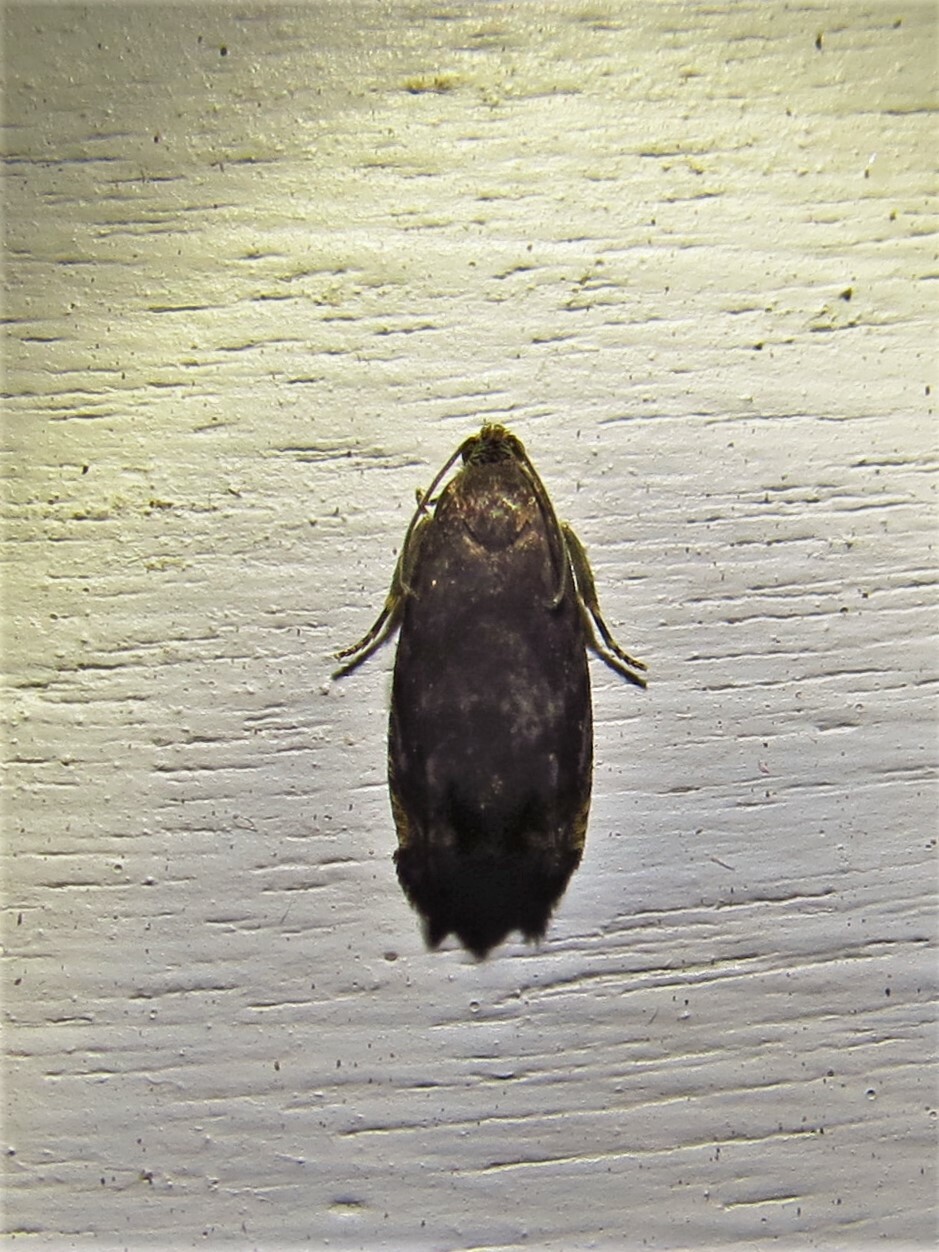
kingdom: Animalia
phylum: Arthropoda
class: Insecta
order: Lepidoptera
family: Tortricidae
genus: Cydia
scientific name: Cydia caryana
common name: Hickory shuckworm moth
